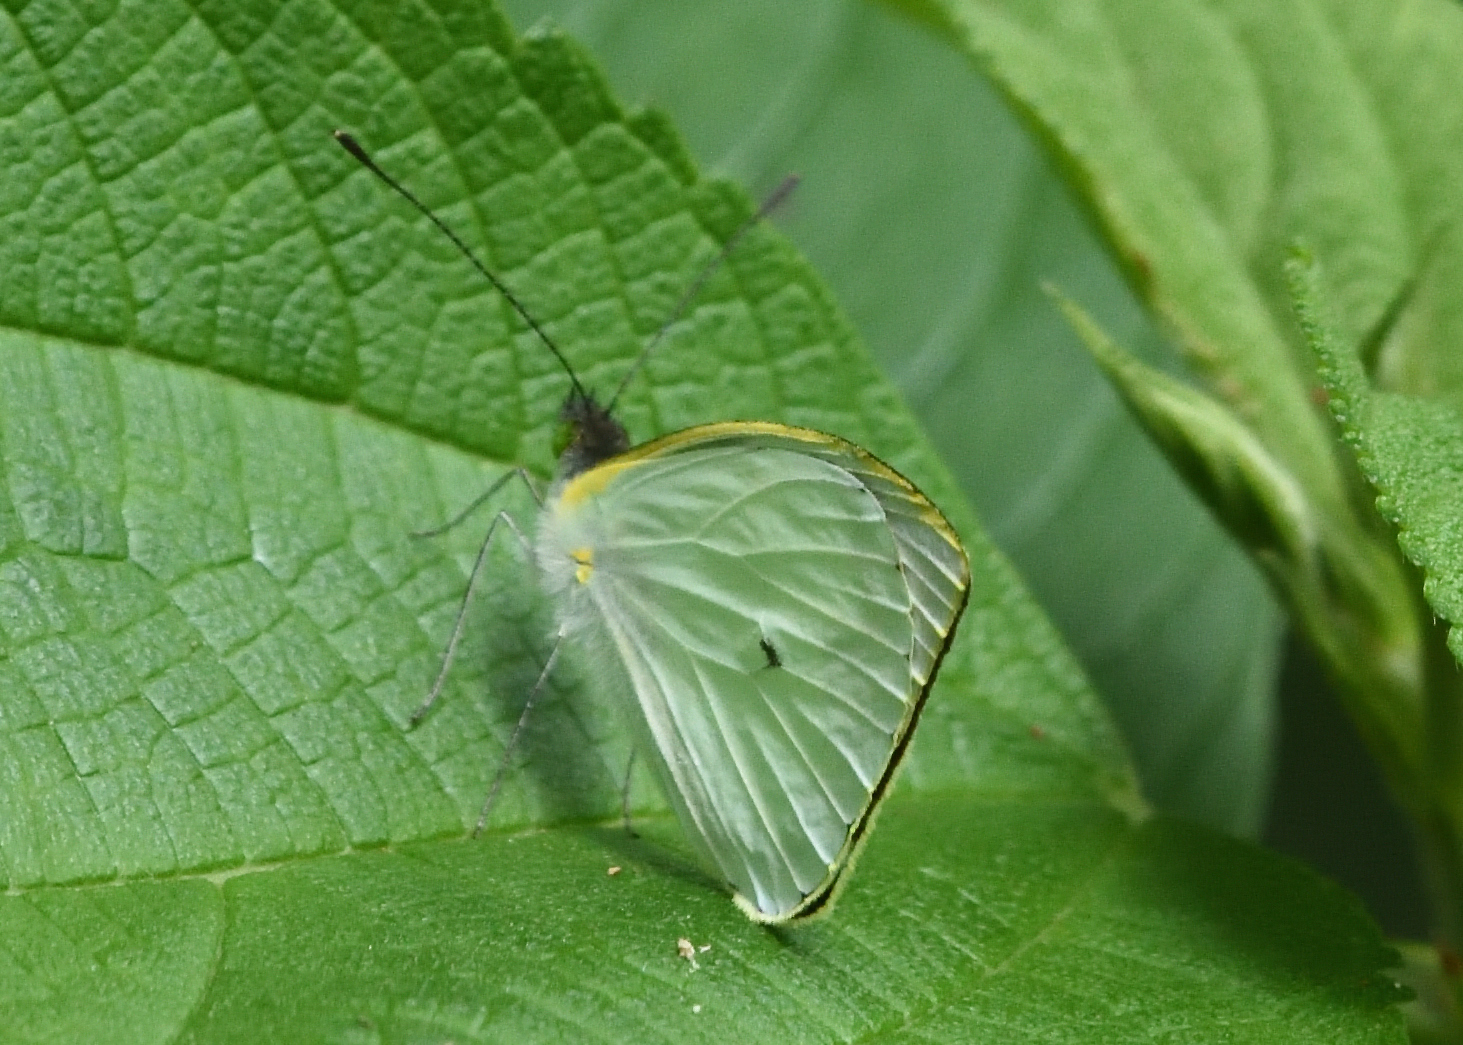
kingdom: Animalia
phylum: Arthropoda
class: Insecta
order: Lepidoptera
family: Pieridae
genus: Leptophobia
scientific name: Leptophobia aripa
